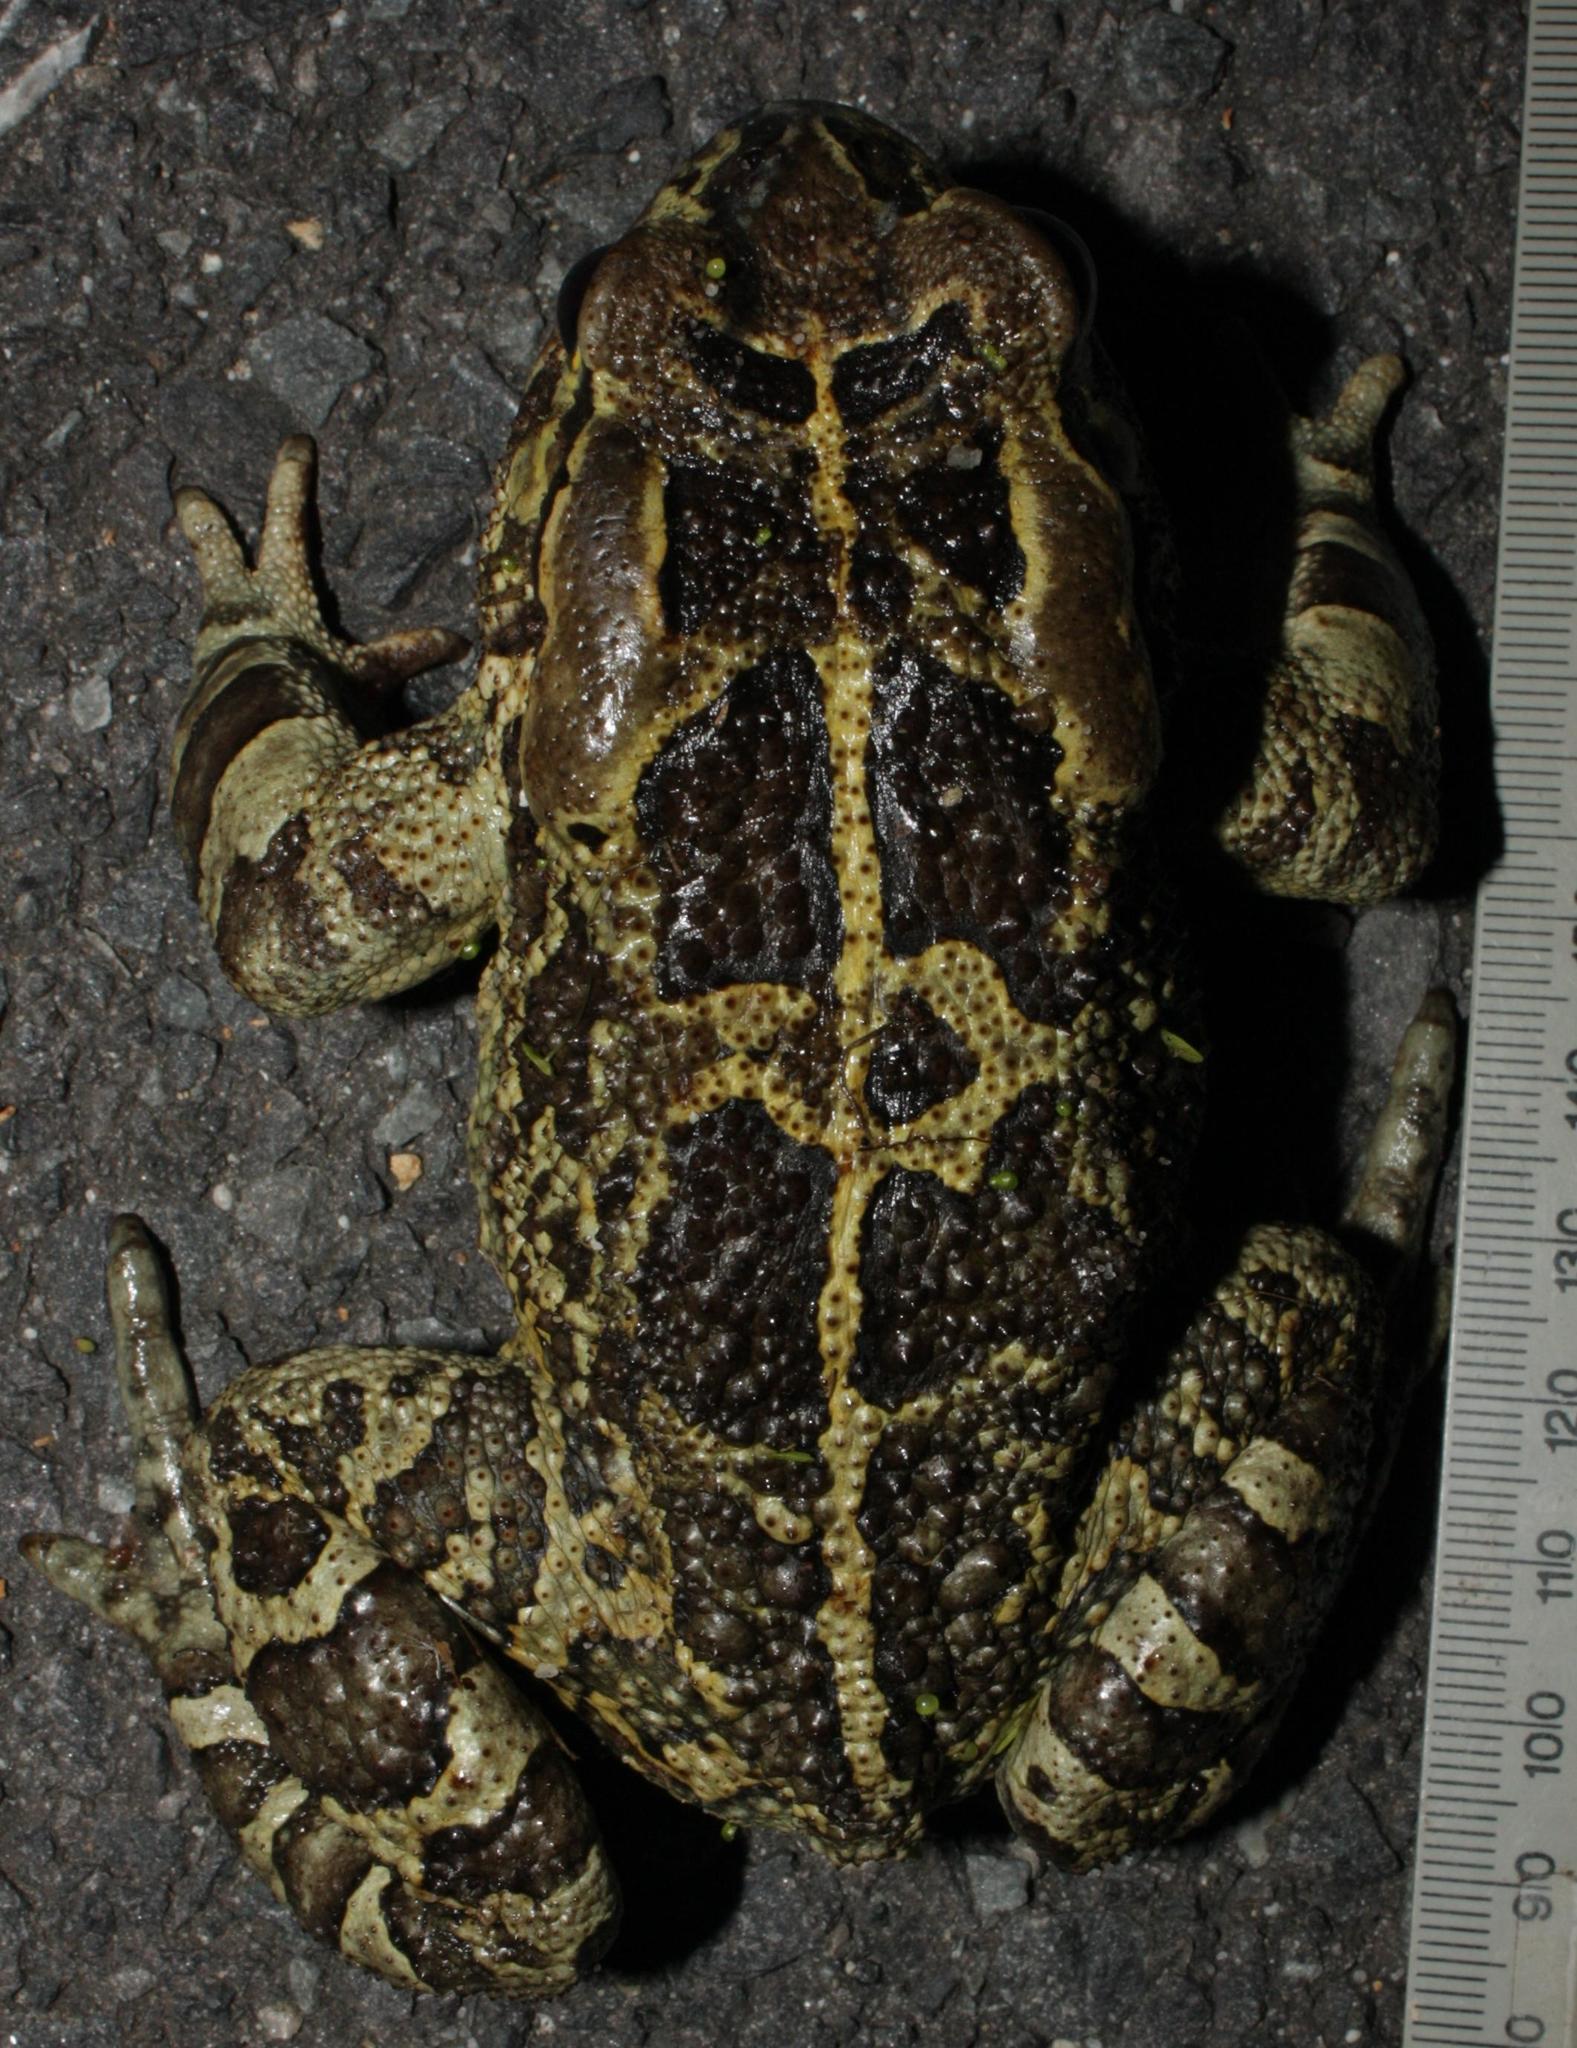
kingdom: Animalia
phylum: Chordata
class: Amphibia
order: Anura
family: Bufonidae
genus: Sclerophrys
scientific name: Sclerophrys pantherina
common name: Panther toad
